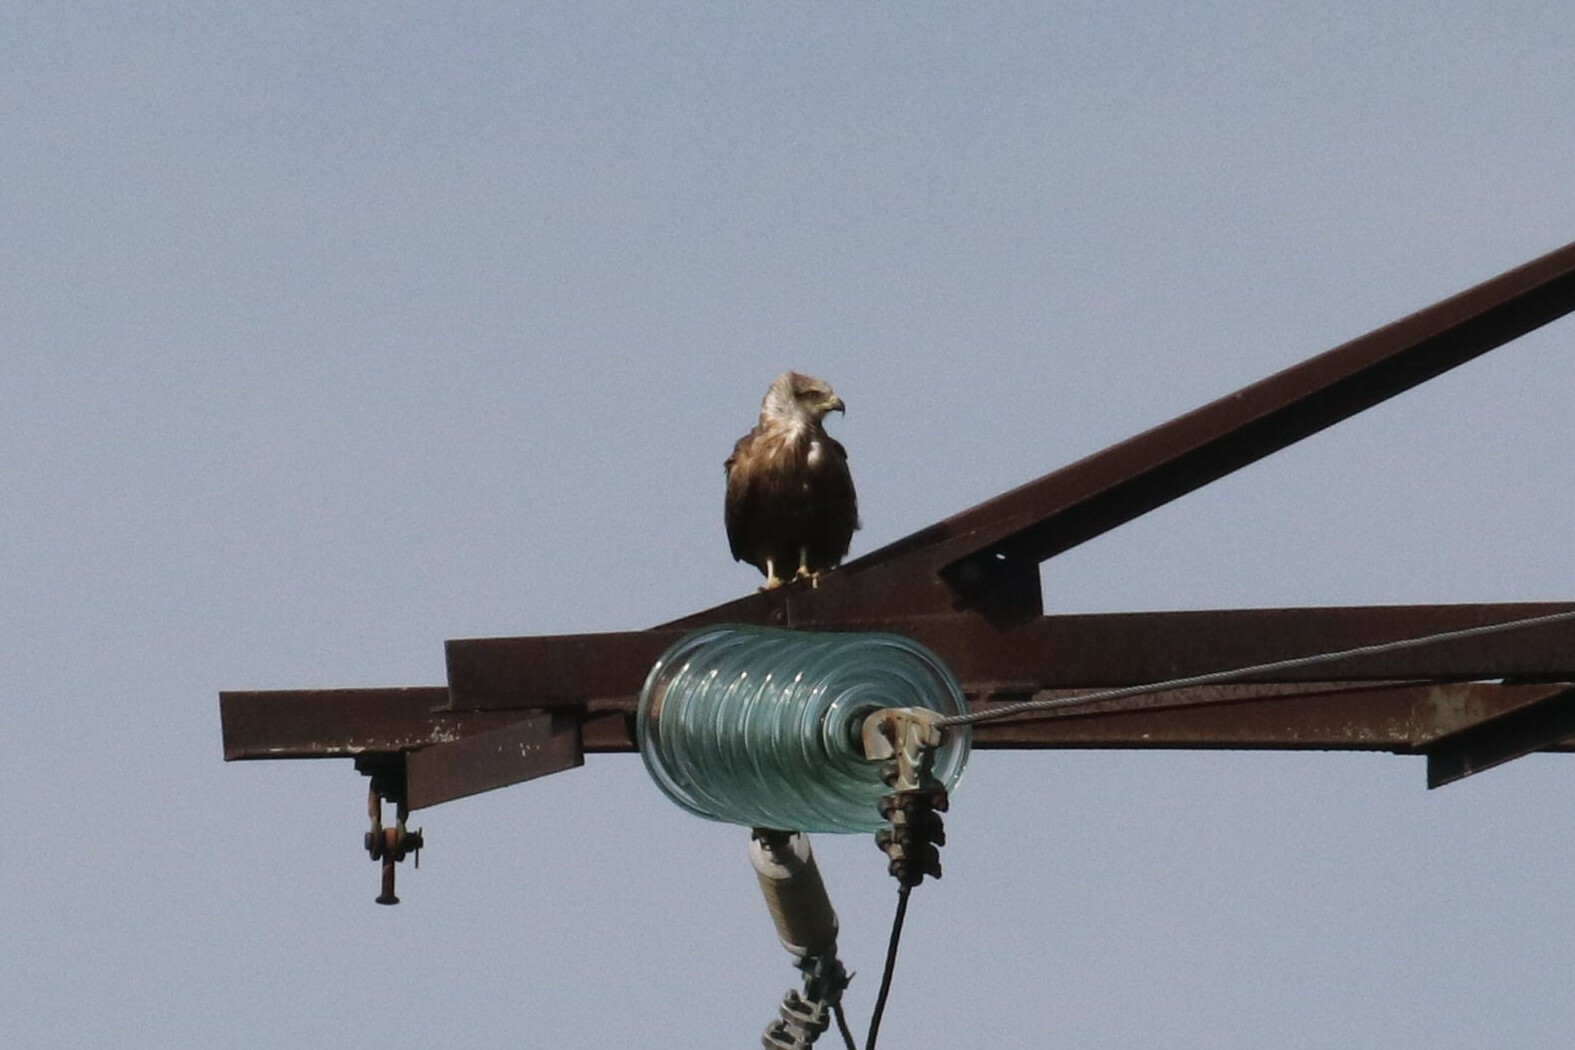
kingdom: Animalia
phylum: Chordata
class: Aves
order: Accipitriformes
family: Accipitridae
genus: Milvus
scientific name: Milvus migrans
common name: Black kite
